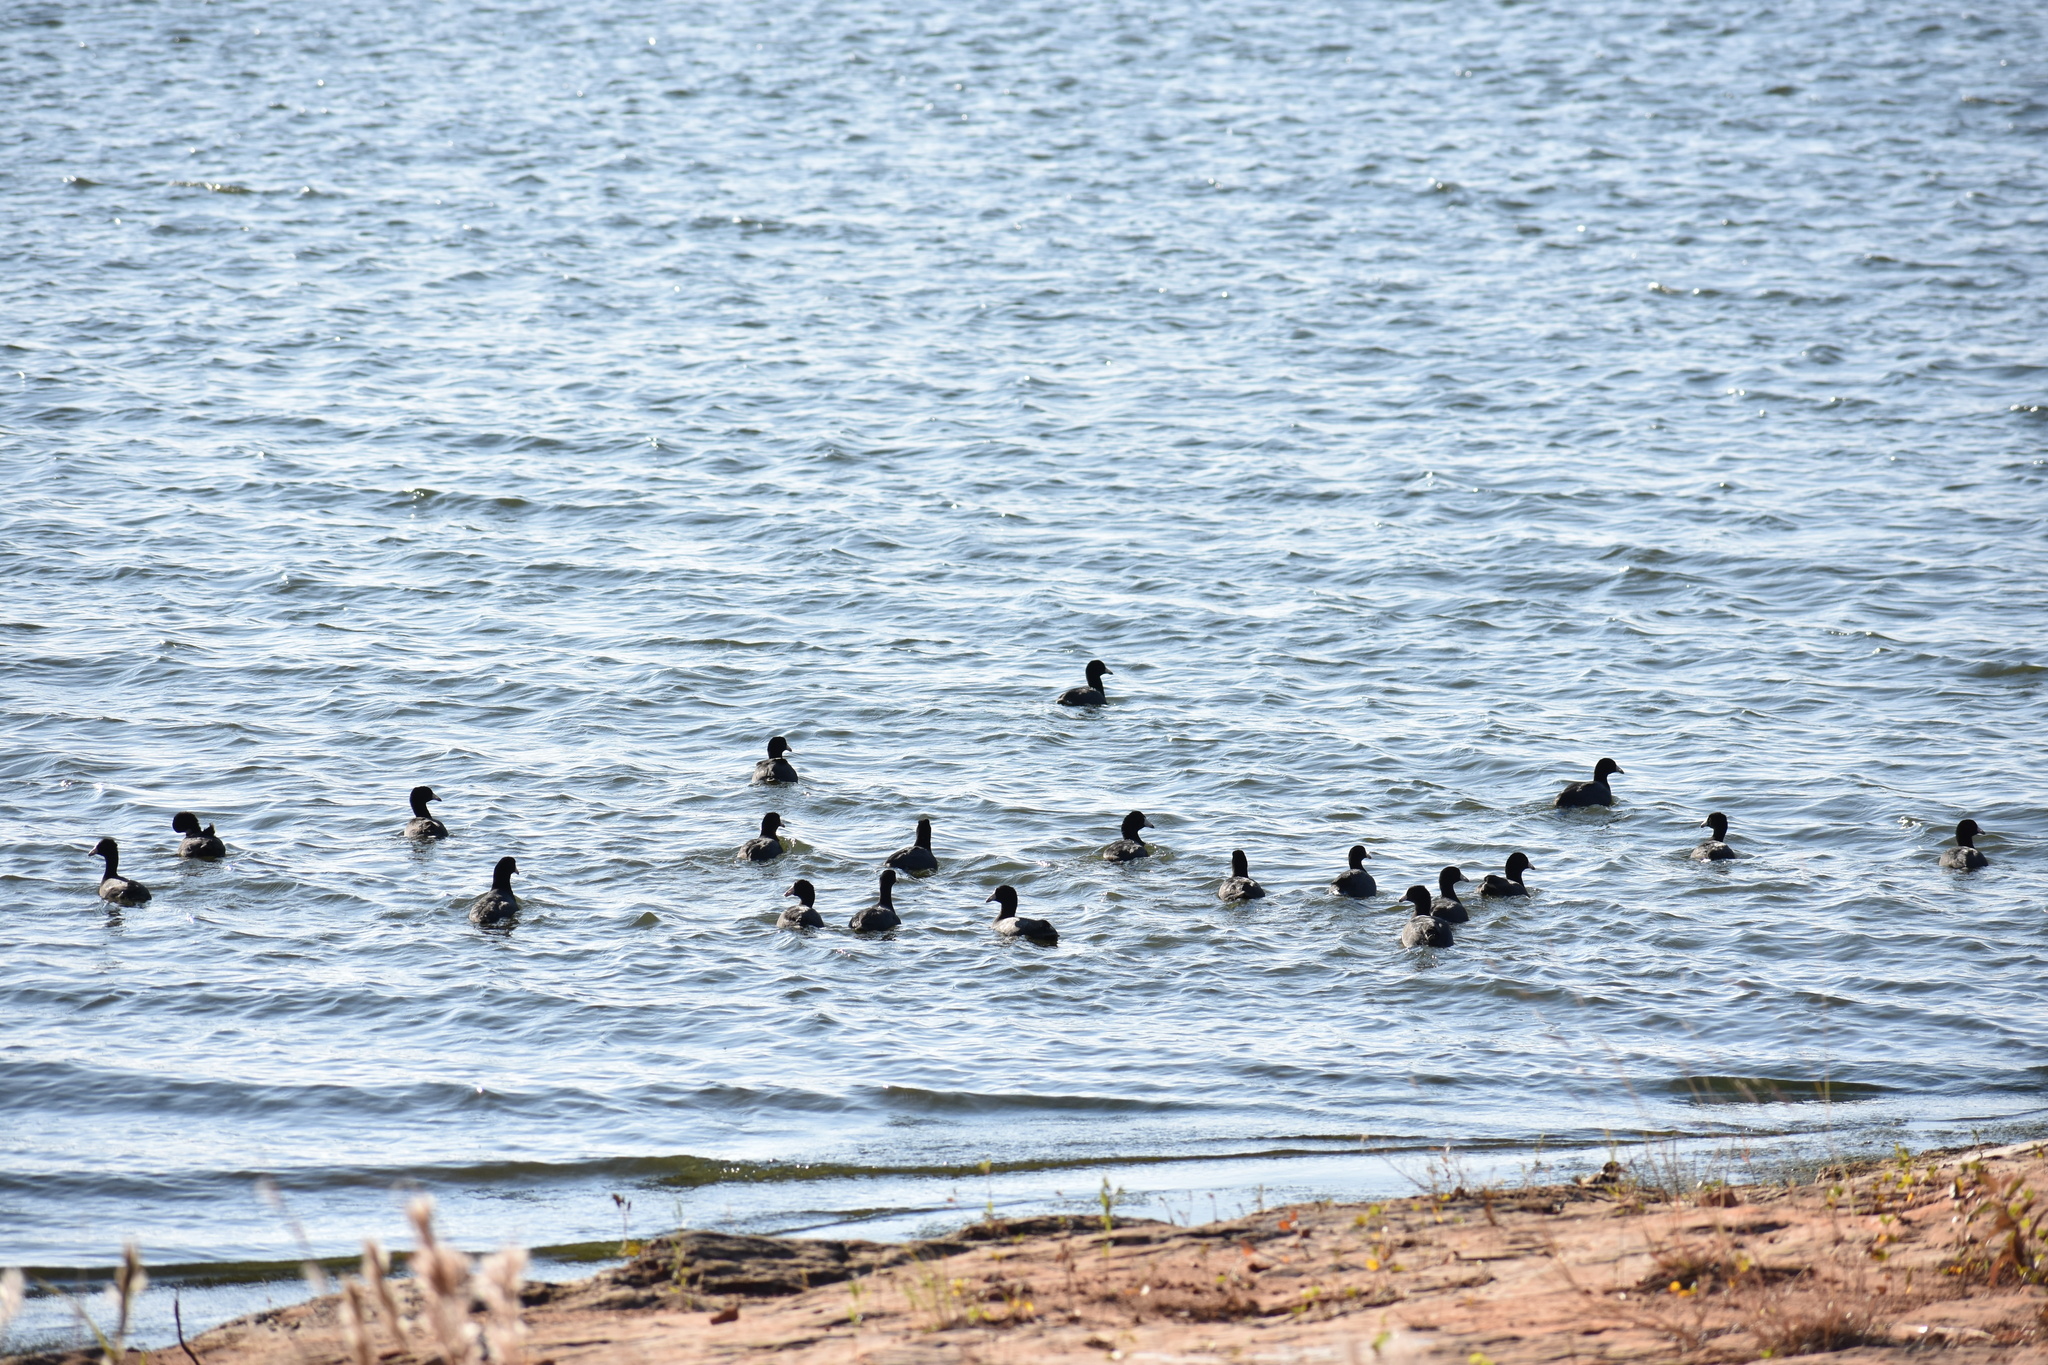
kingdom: Animalia
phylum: Chordata
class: Aves
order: Gruiformes
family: Rallidae
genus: Fulica
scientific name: Fulica americana
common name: American coot
